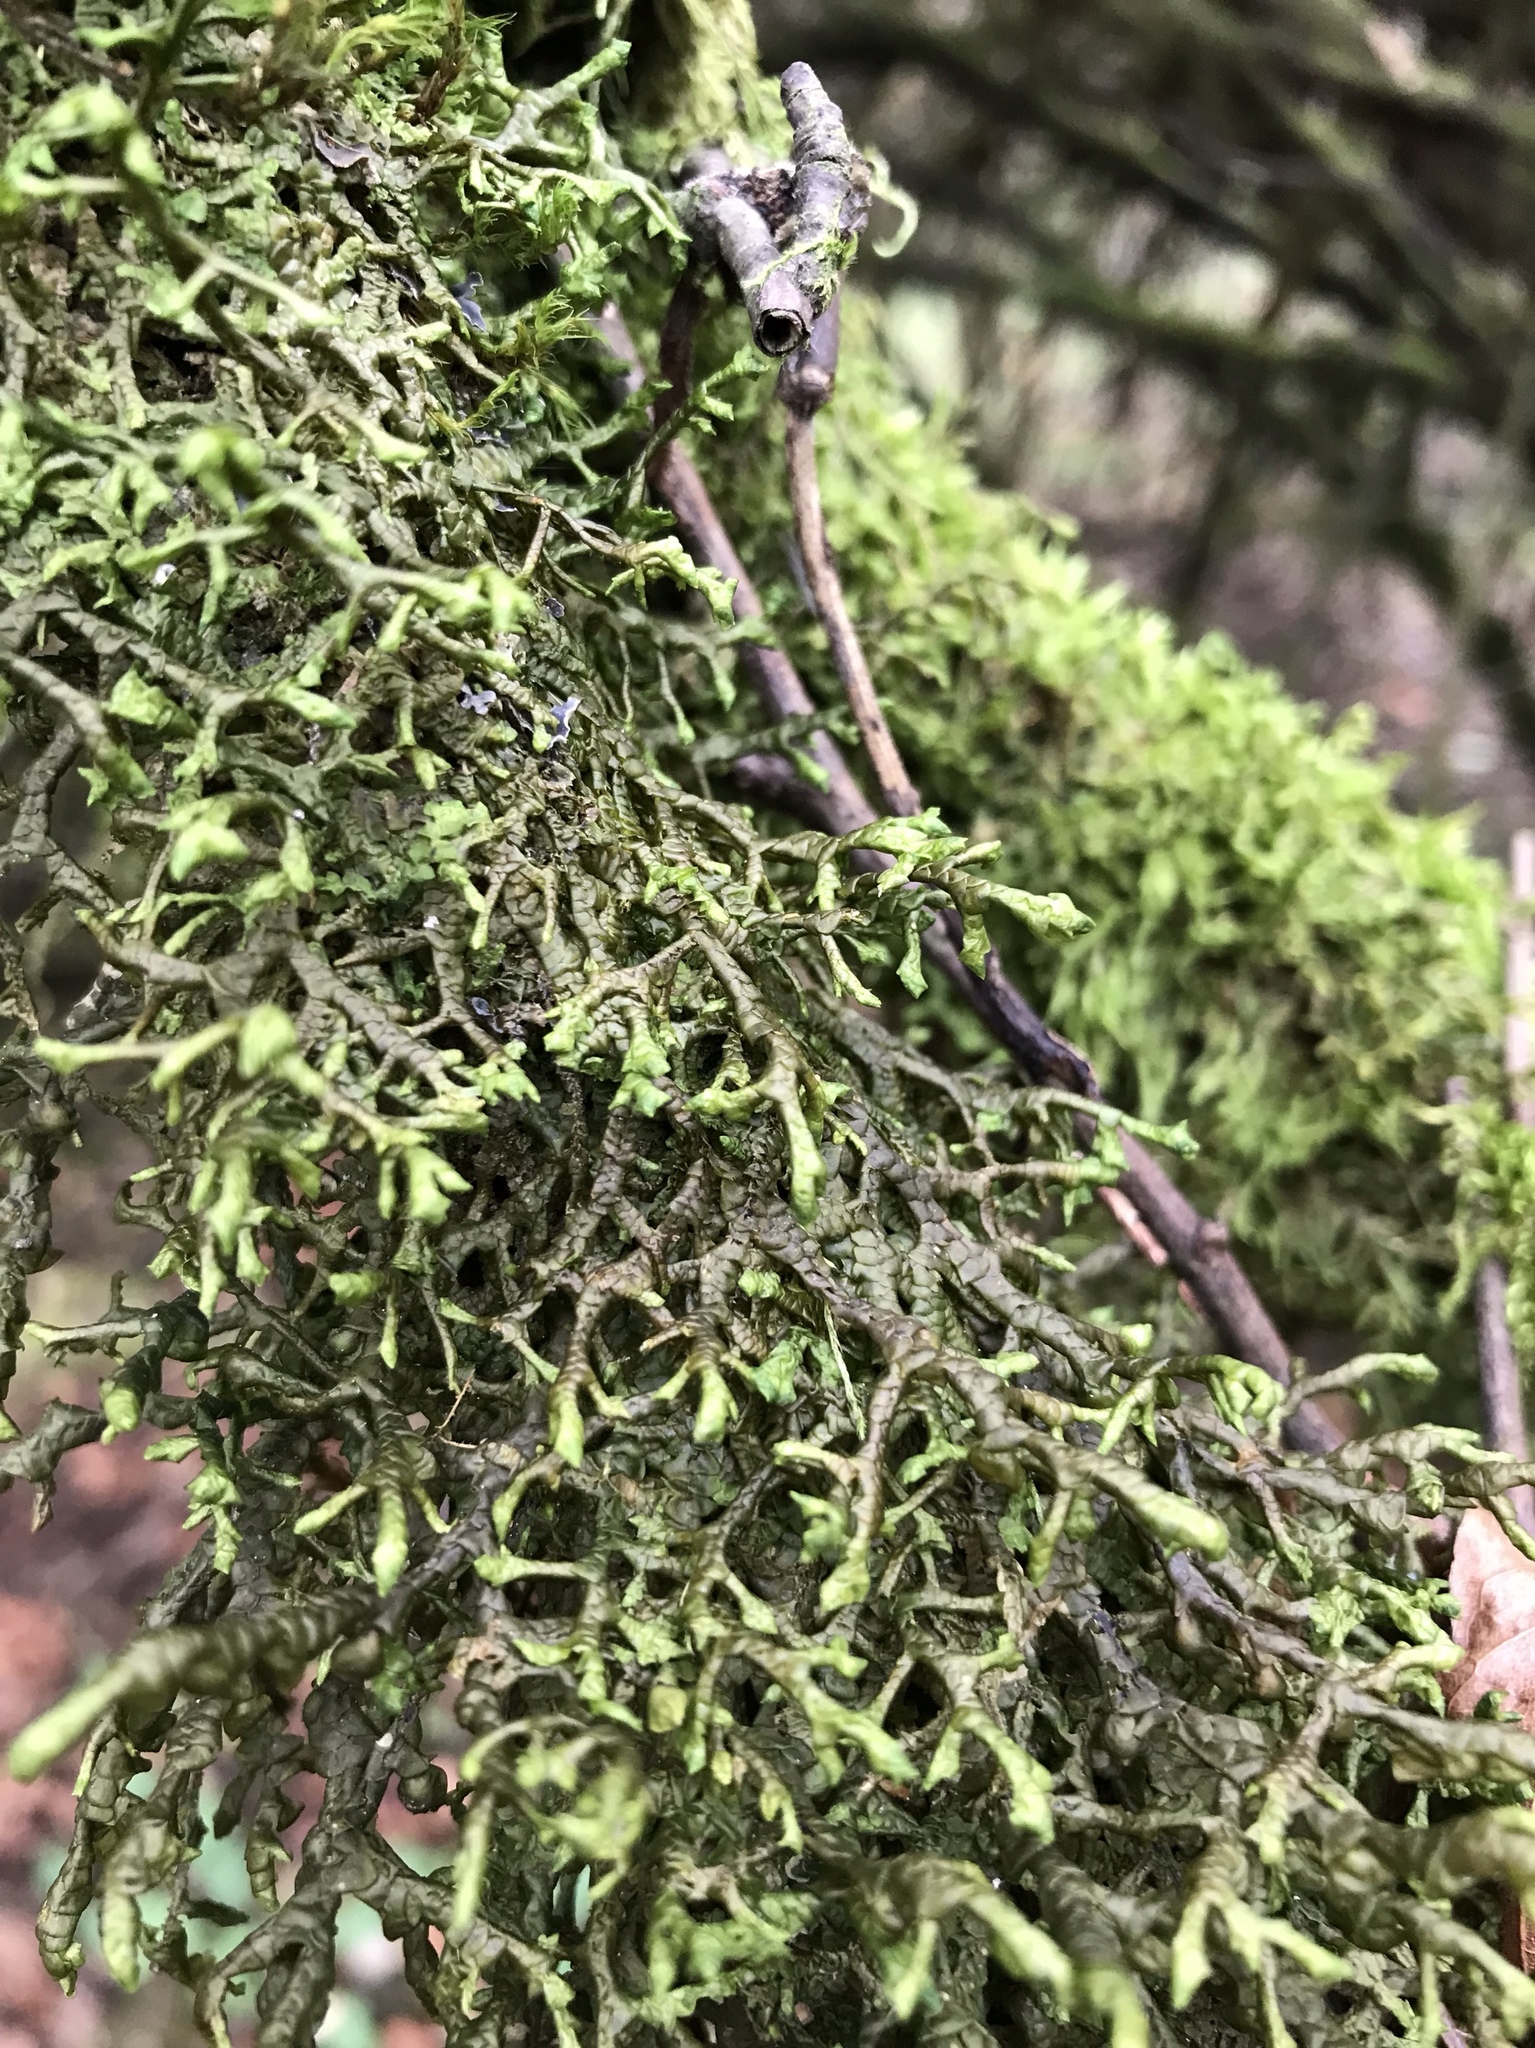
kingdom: Plantae
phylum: Marchantiophyta
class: Jungermanniopsida
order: Porellales
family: Porellaceae
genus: Porella
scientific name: Porella navicularis
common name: Tree ruffle liverwort
